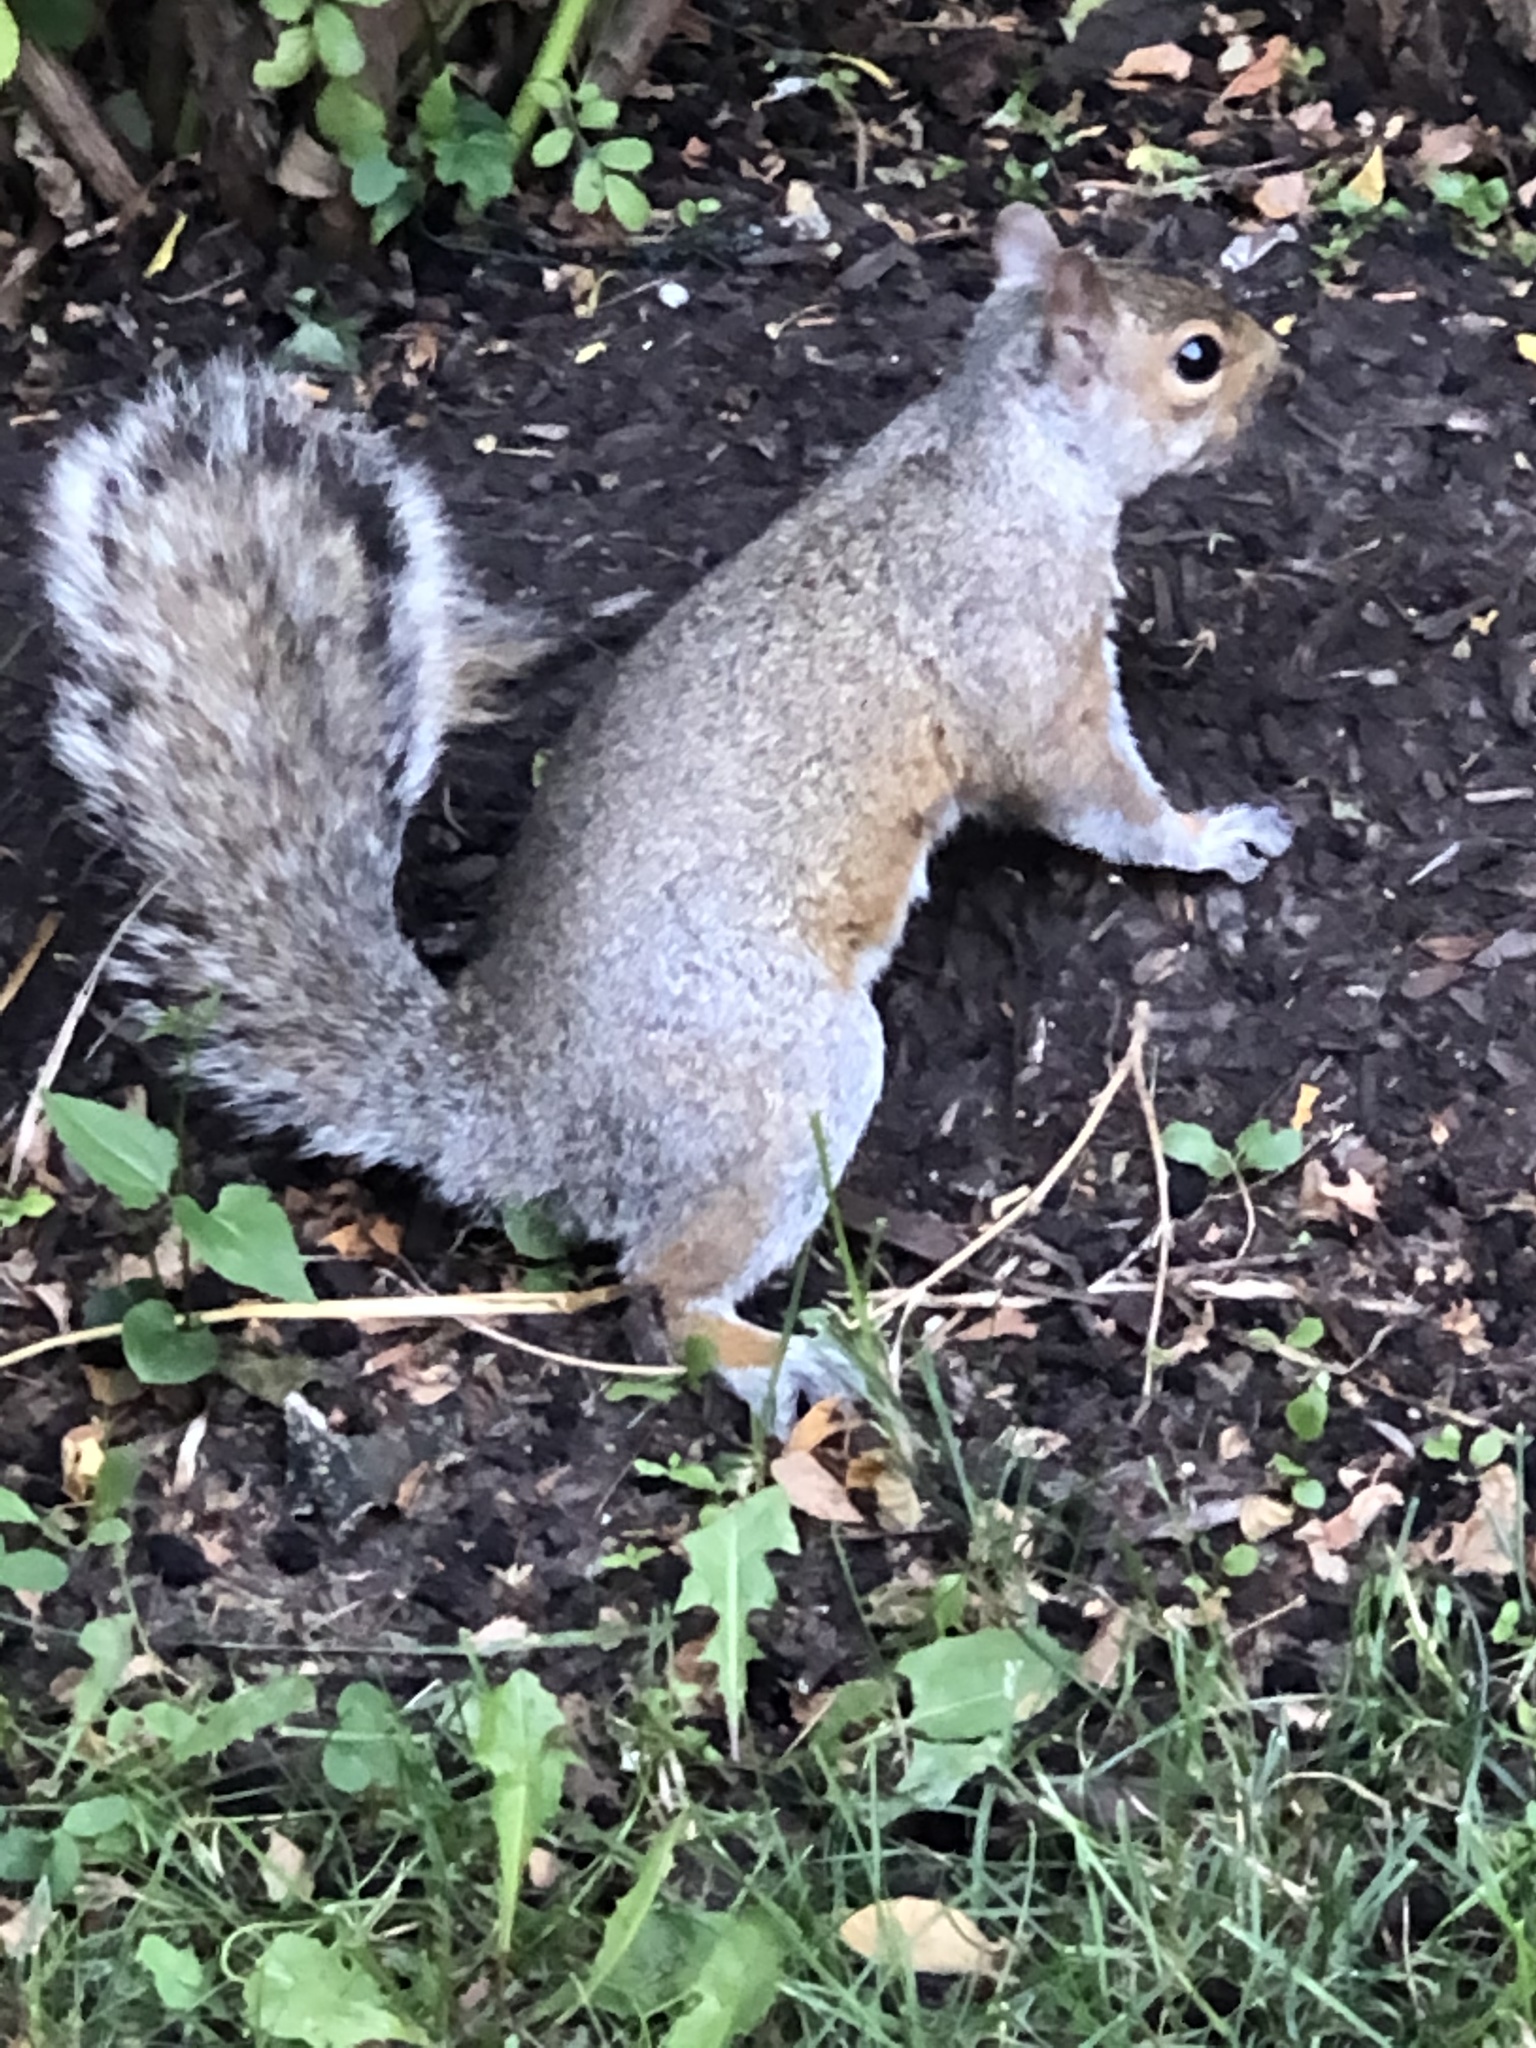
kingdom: Animalia
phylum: Chordata
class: Mammalia
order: Rodentia
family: Sciuridae
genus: Sciurus
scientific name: Sciurus carolinensis
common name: Eastern gray squirrel
